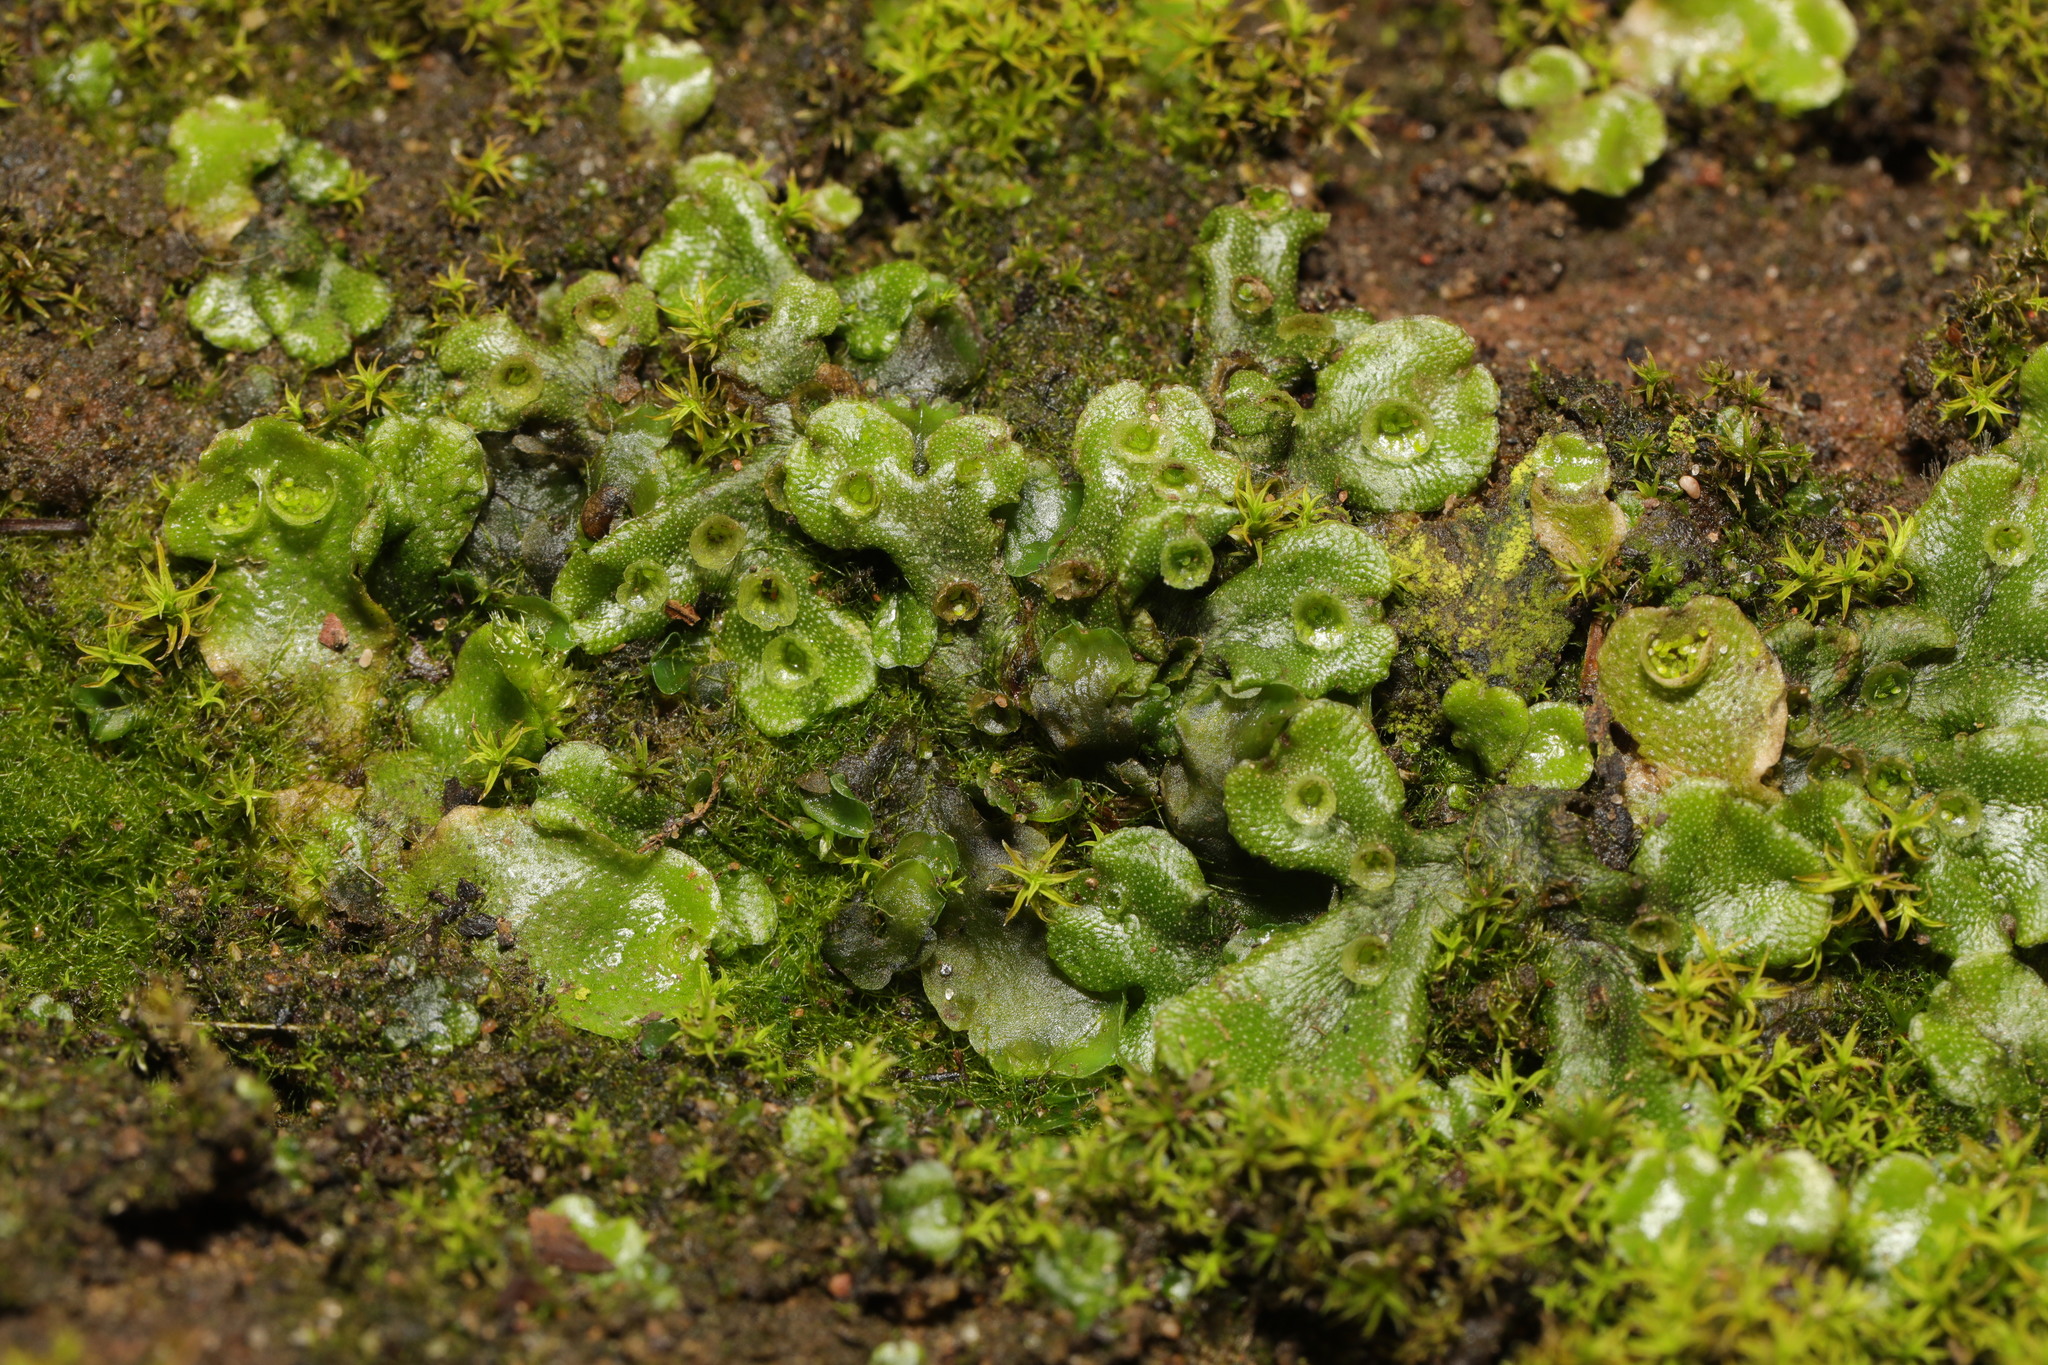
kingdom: Plantae
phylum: Marchantiophyta
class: Marchantiopsida
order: Marchantiales
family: Marchantiaceae
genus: Marchantia
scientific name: Marchantia polymorpha
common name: Common liverwort
